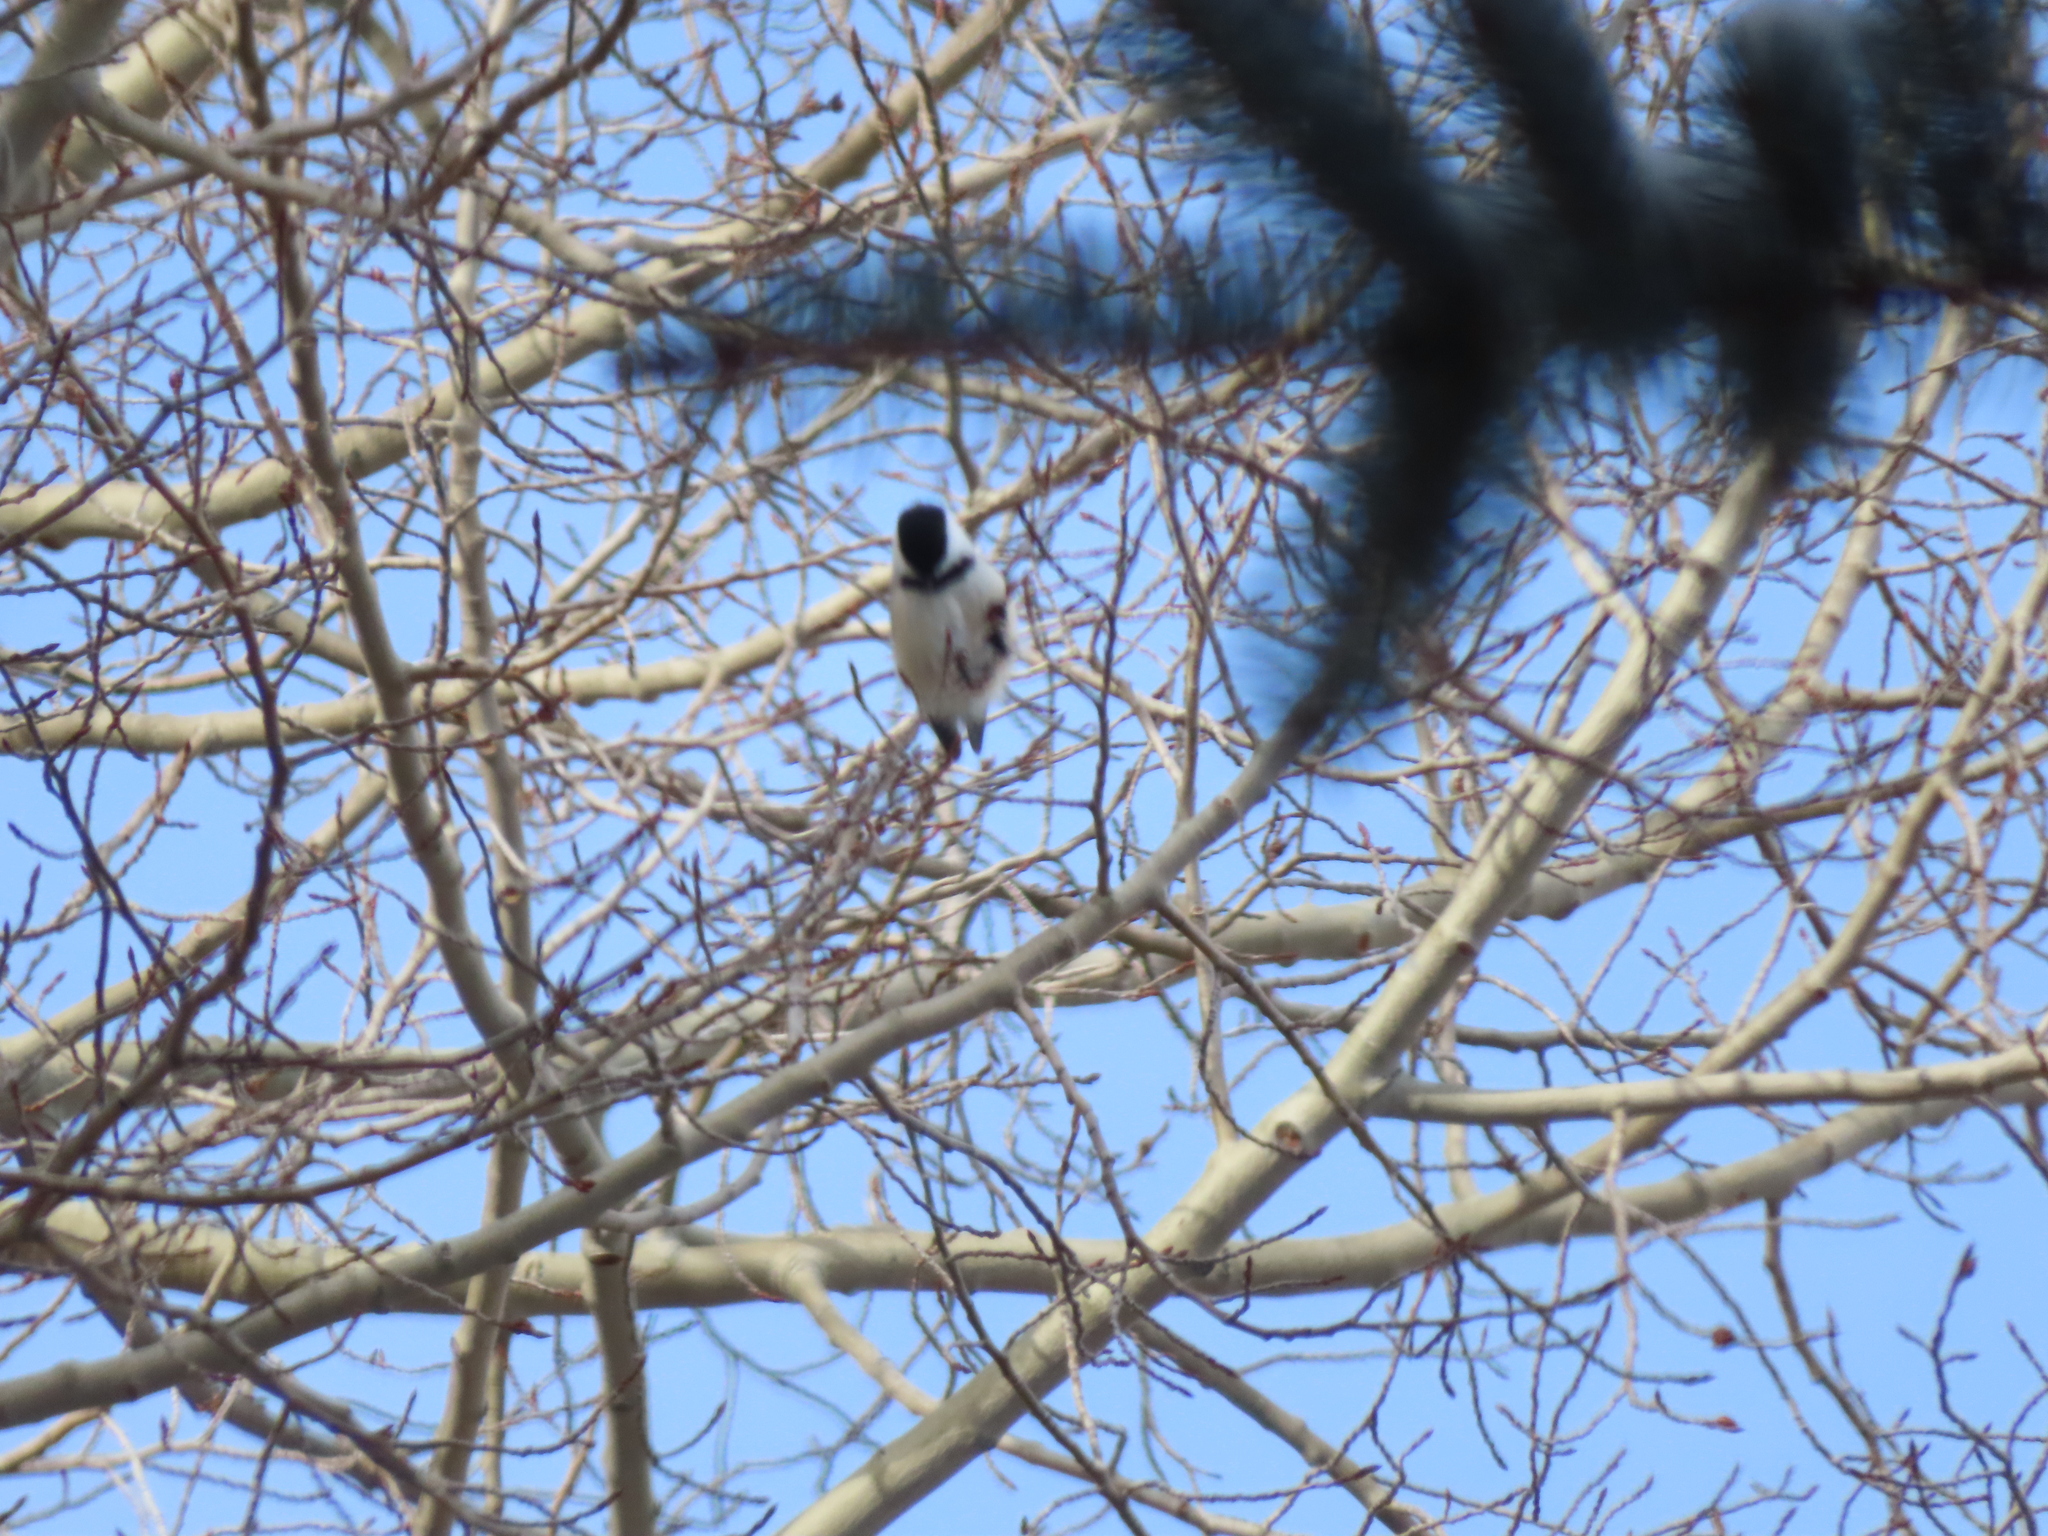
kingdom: Animalia
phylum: Chordata
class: Aves
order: Passeriformes
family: Paridae
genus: Poecile
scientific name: Poecile atricapillus
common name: Black-capped chickadee
